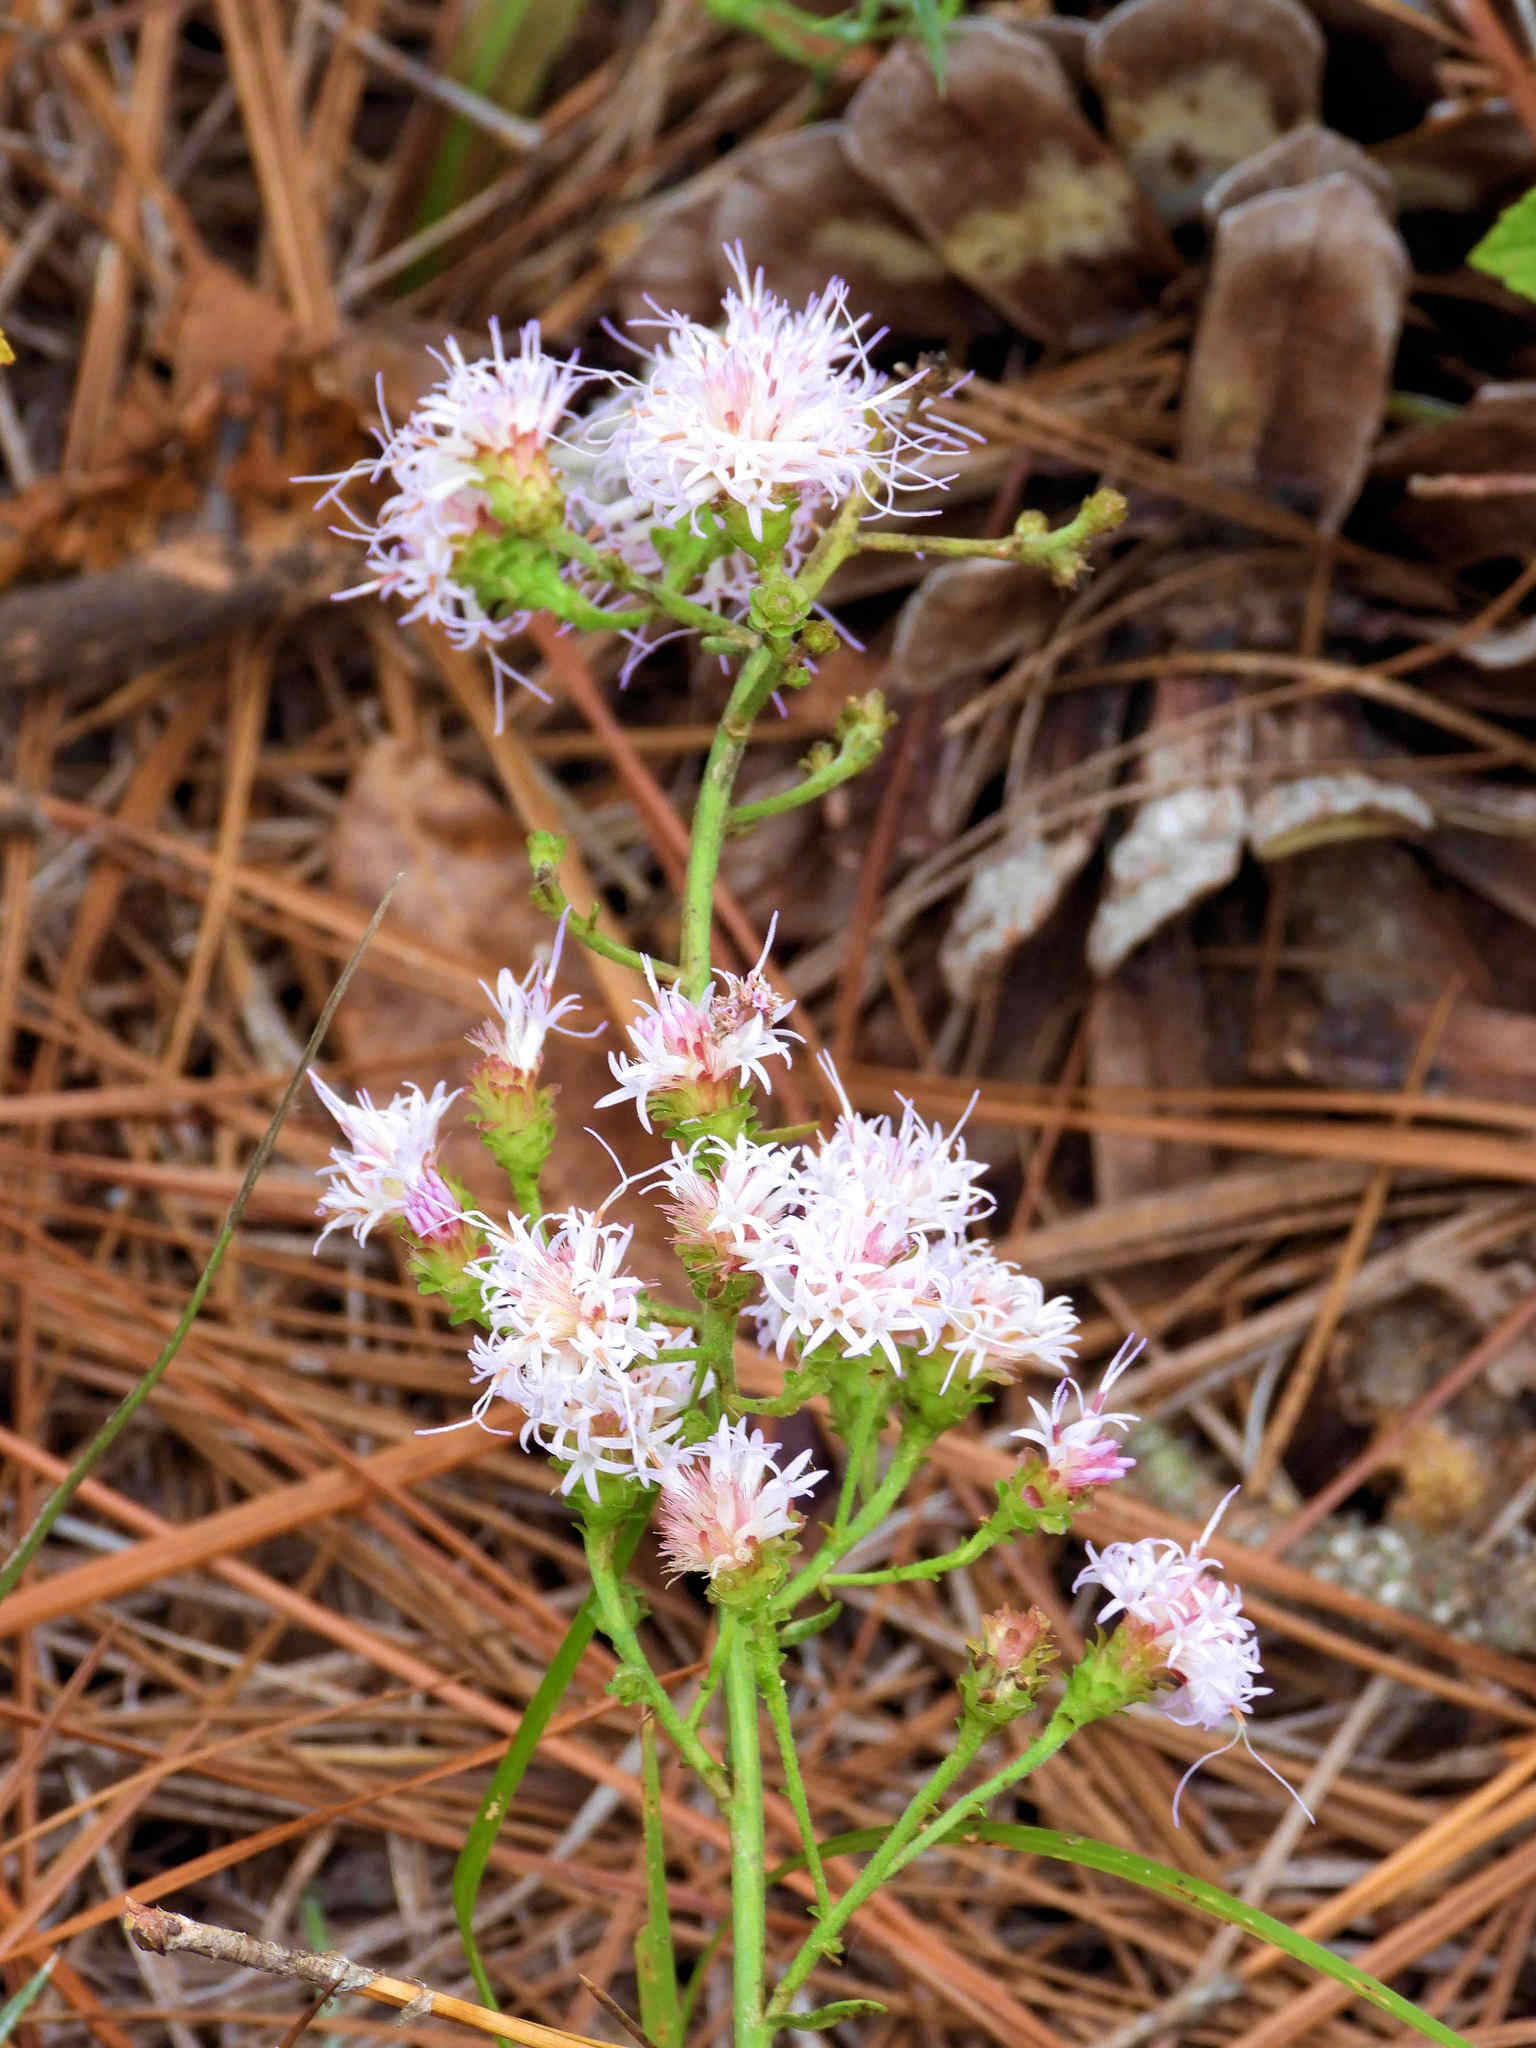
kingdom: Plantae
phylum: Tracheophyta
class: Magnoliopsida
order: Asterales
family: Asteraceae
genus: Carphephorus
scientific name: Carphephorus bellidifolius
